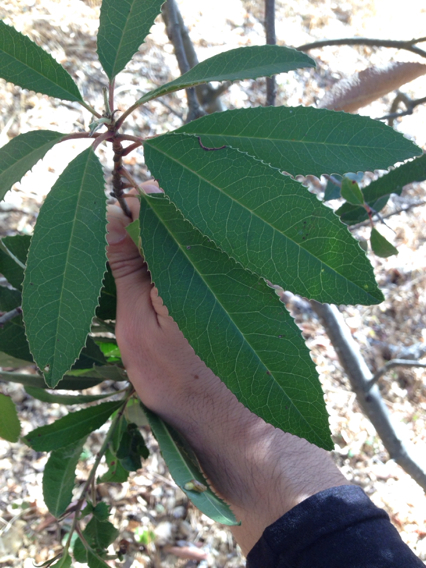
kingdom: Plantae
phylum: Tracheophyta
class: Magnoliopsida
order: Rosales
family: Rosaceae
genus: Heteromeles
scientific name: Heteromeles arbutifolia
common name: California-holly
